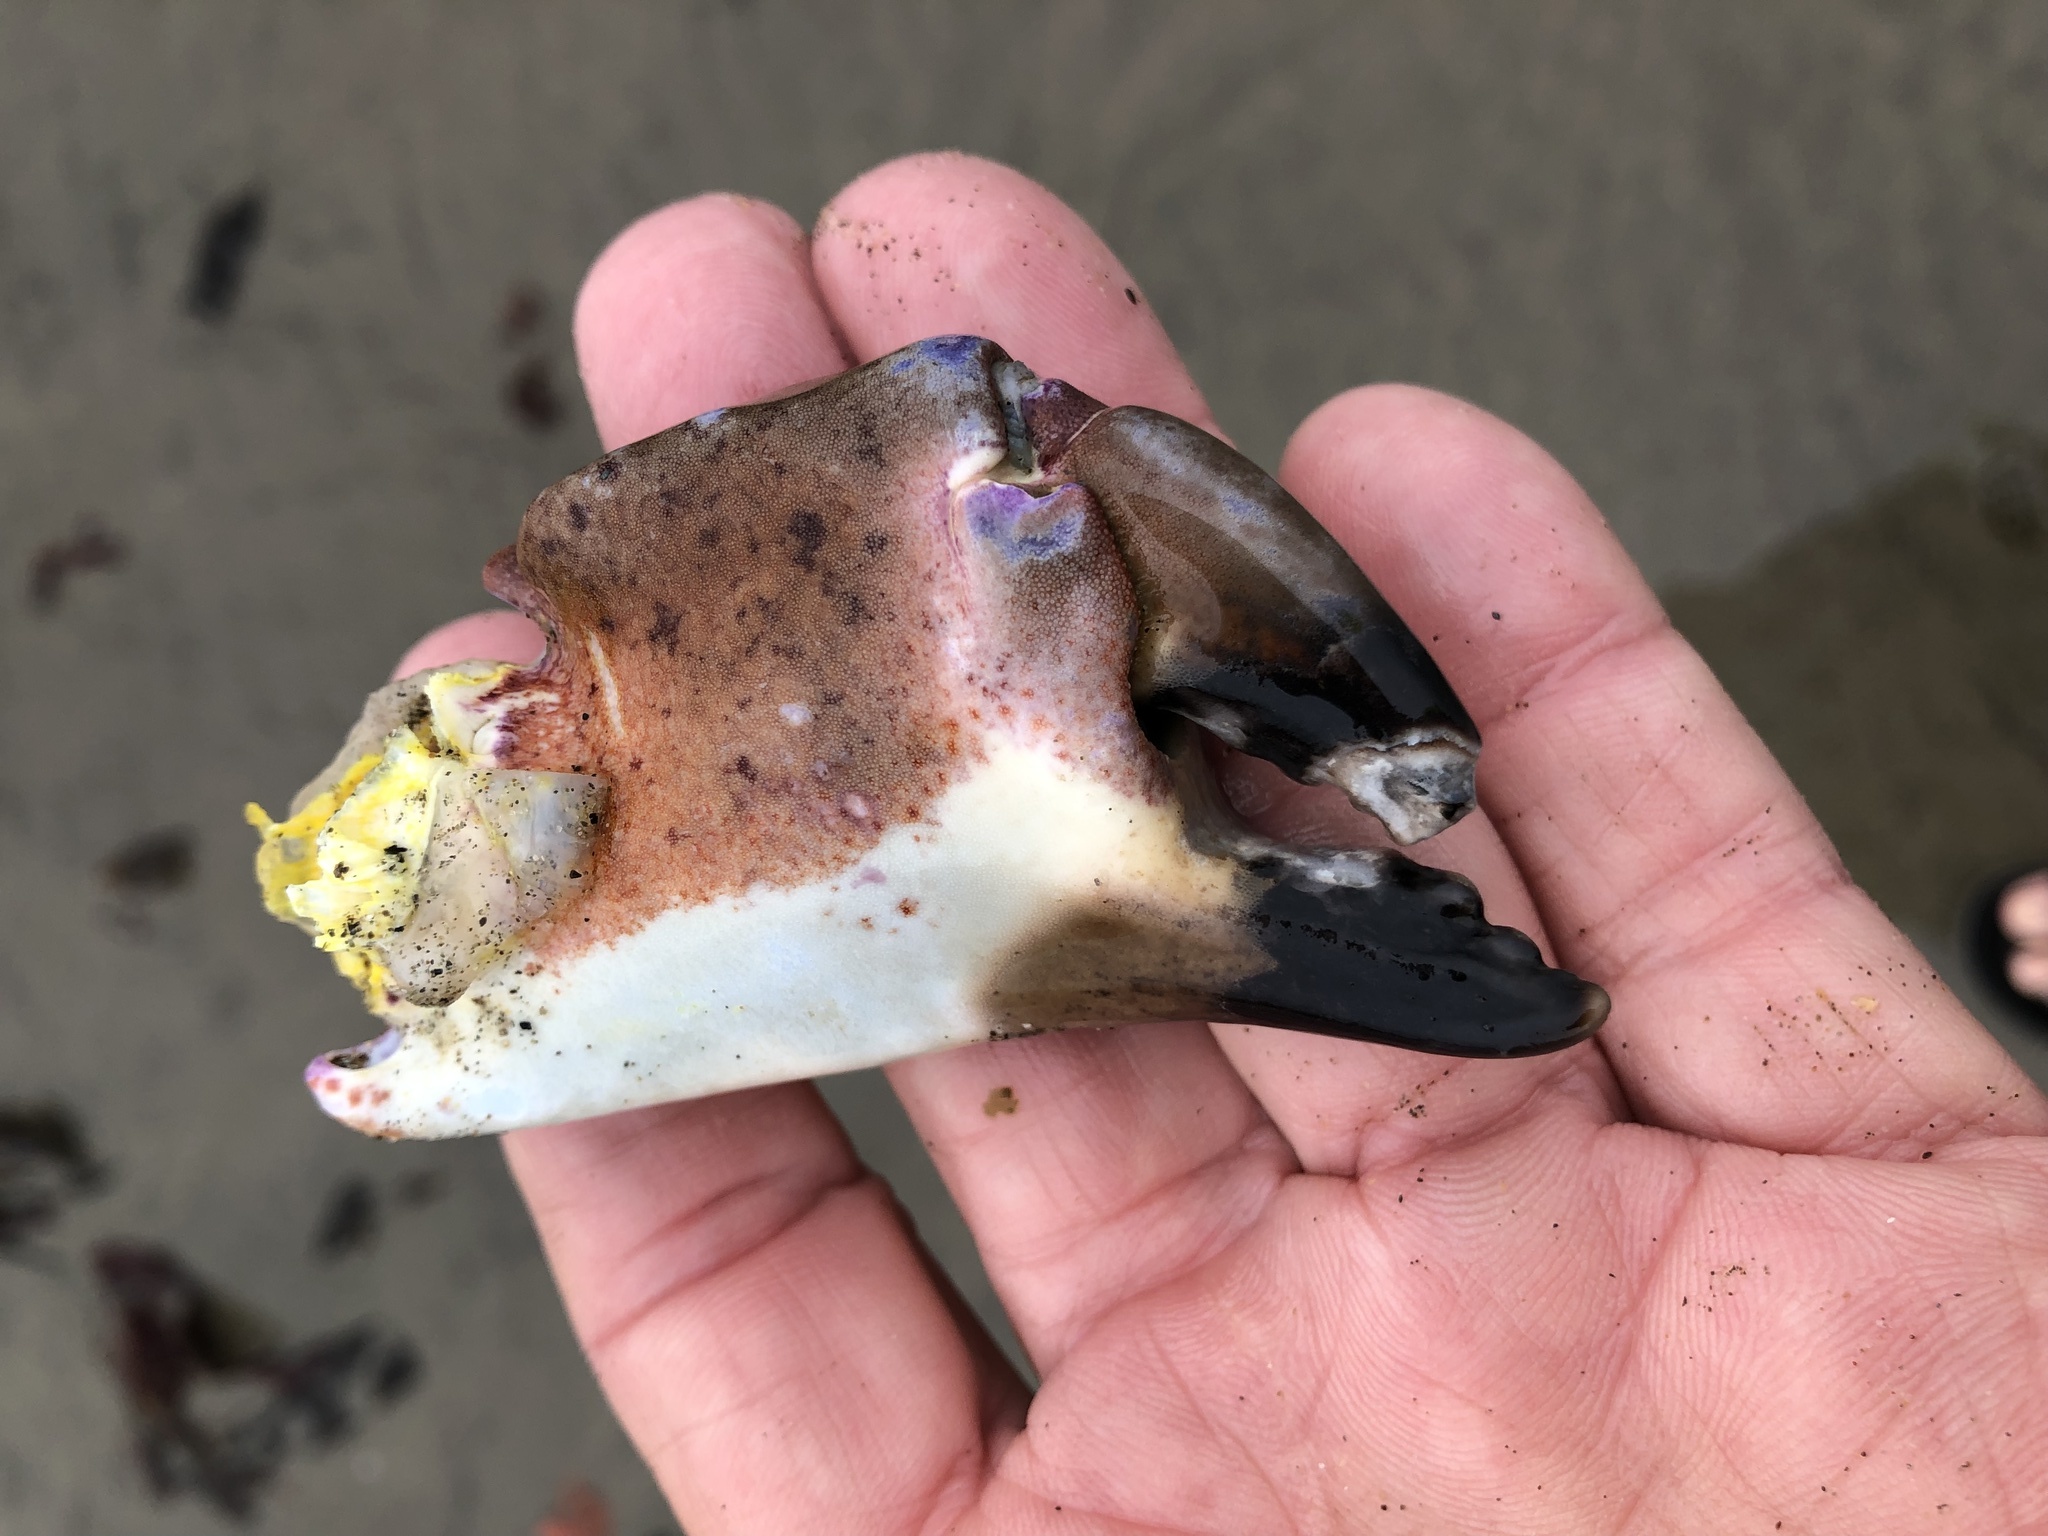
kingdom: Animalia
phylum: Arthropoda
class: Malacostraca
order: Decapoda
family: Cancridae
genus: Romaleon
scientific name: Romaleon antennarium
